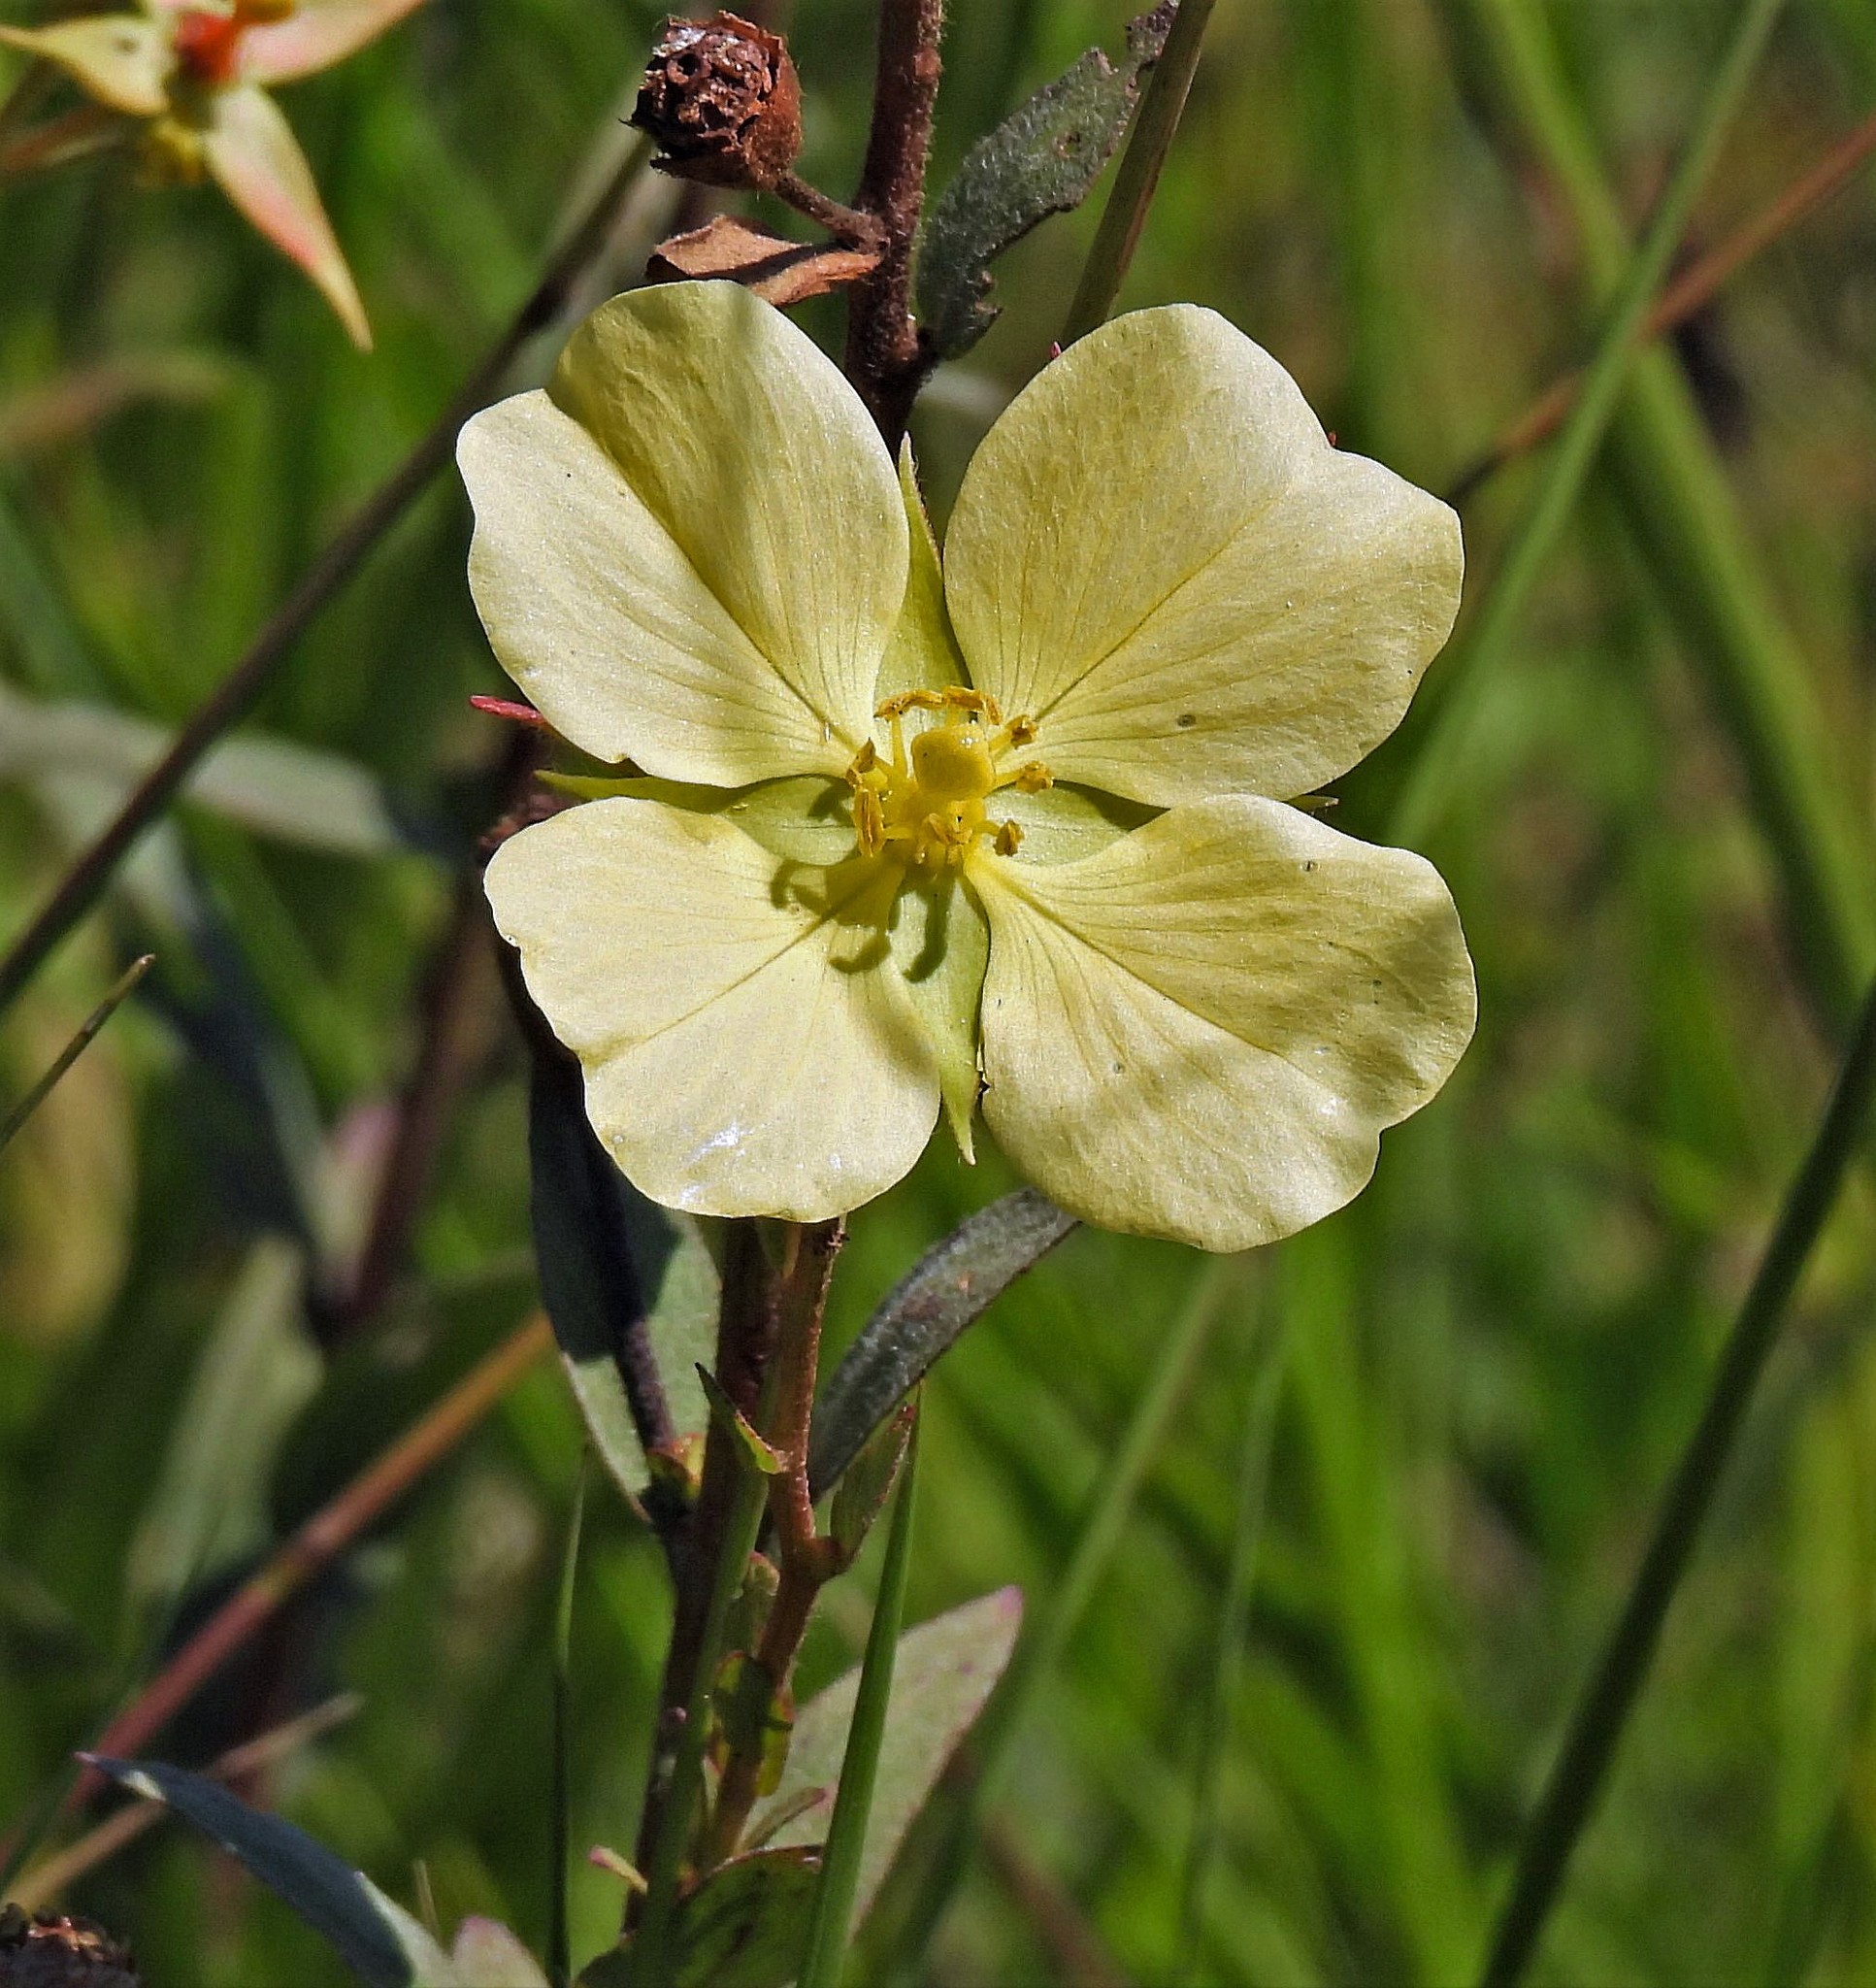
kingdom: Plantae
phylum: Tracheophyta
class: Magnoliopsida
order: Myrtales
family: Onagraceae
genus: Ludwigia
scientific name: Ludwigia sericea
